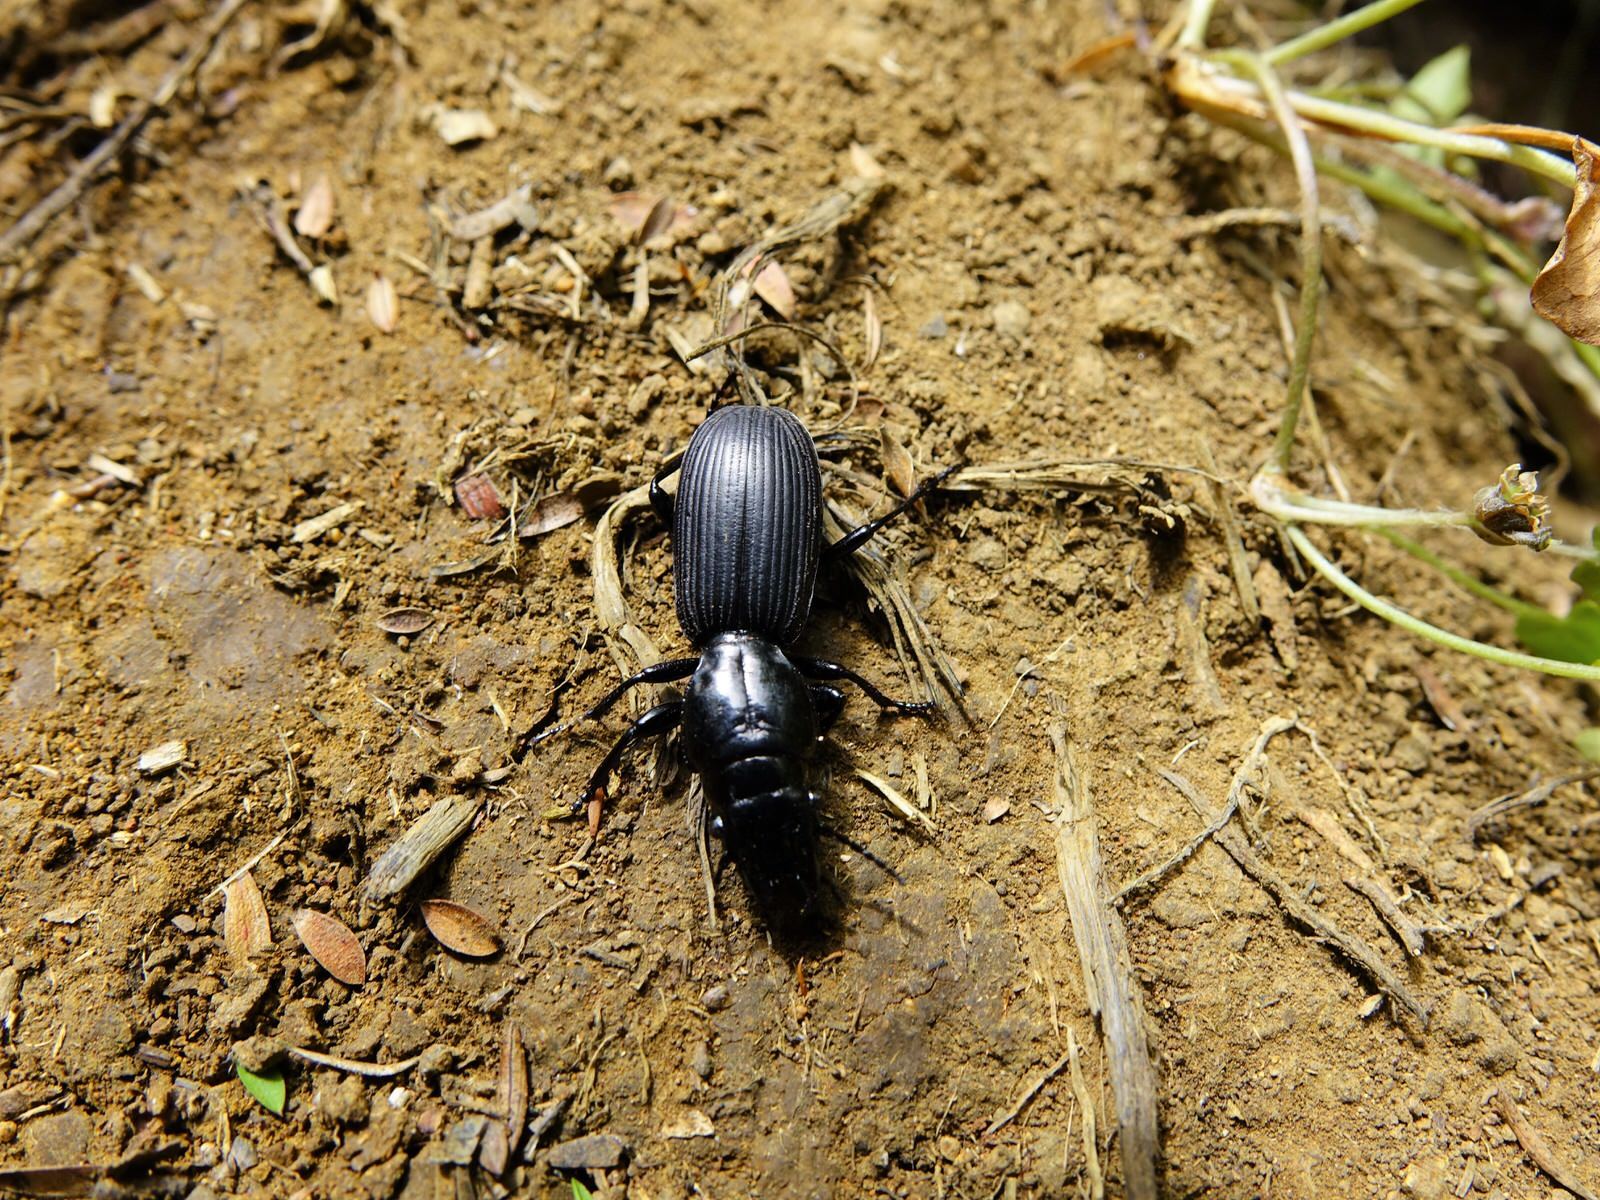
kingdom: Animalia
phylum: Arthropoda
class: Insecta
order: Coleoptera
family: Carabidae
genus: Mecodema
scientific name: Mecodema spiniferum
